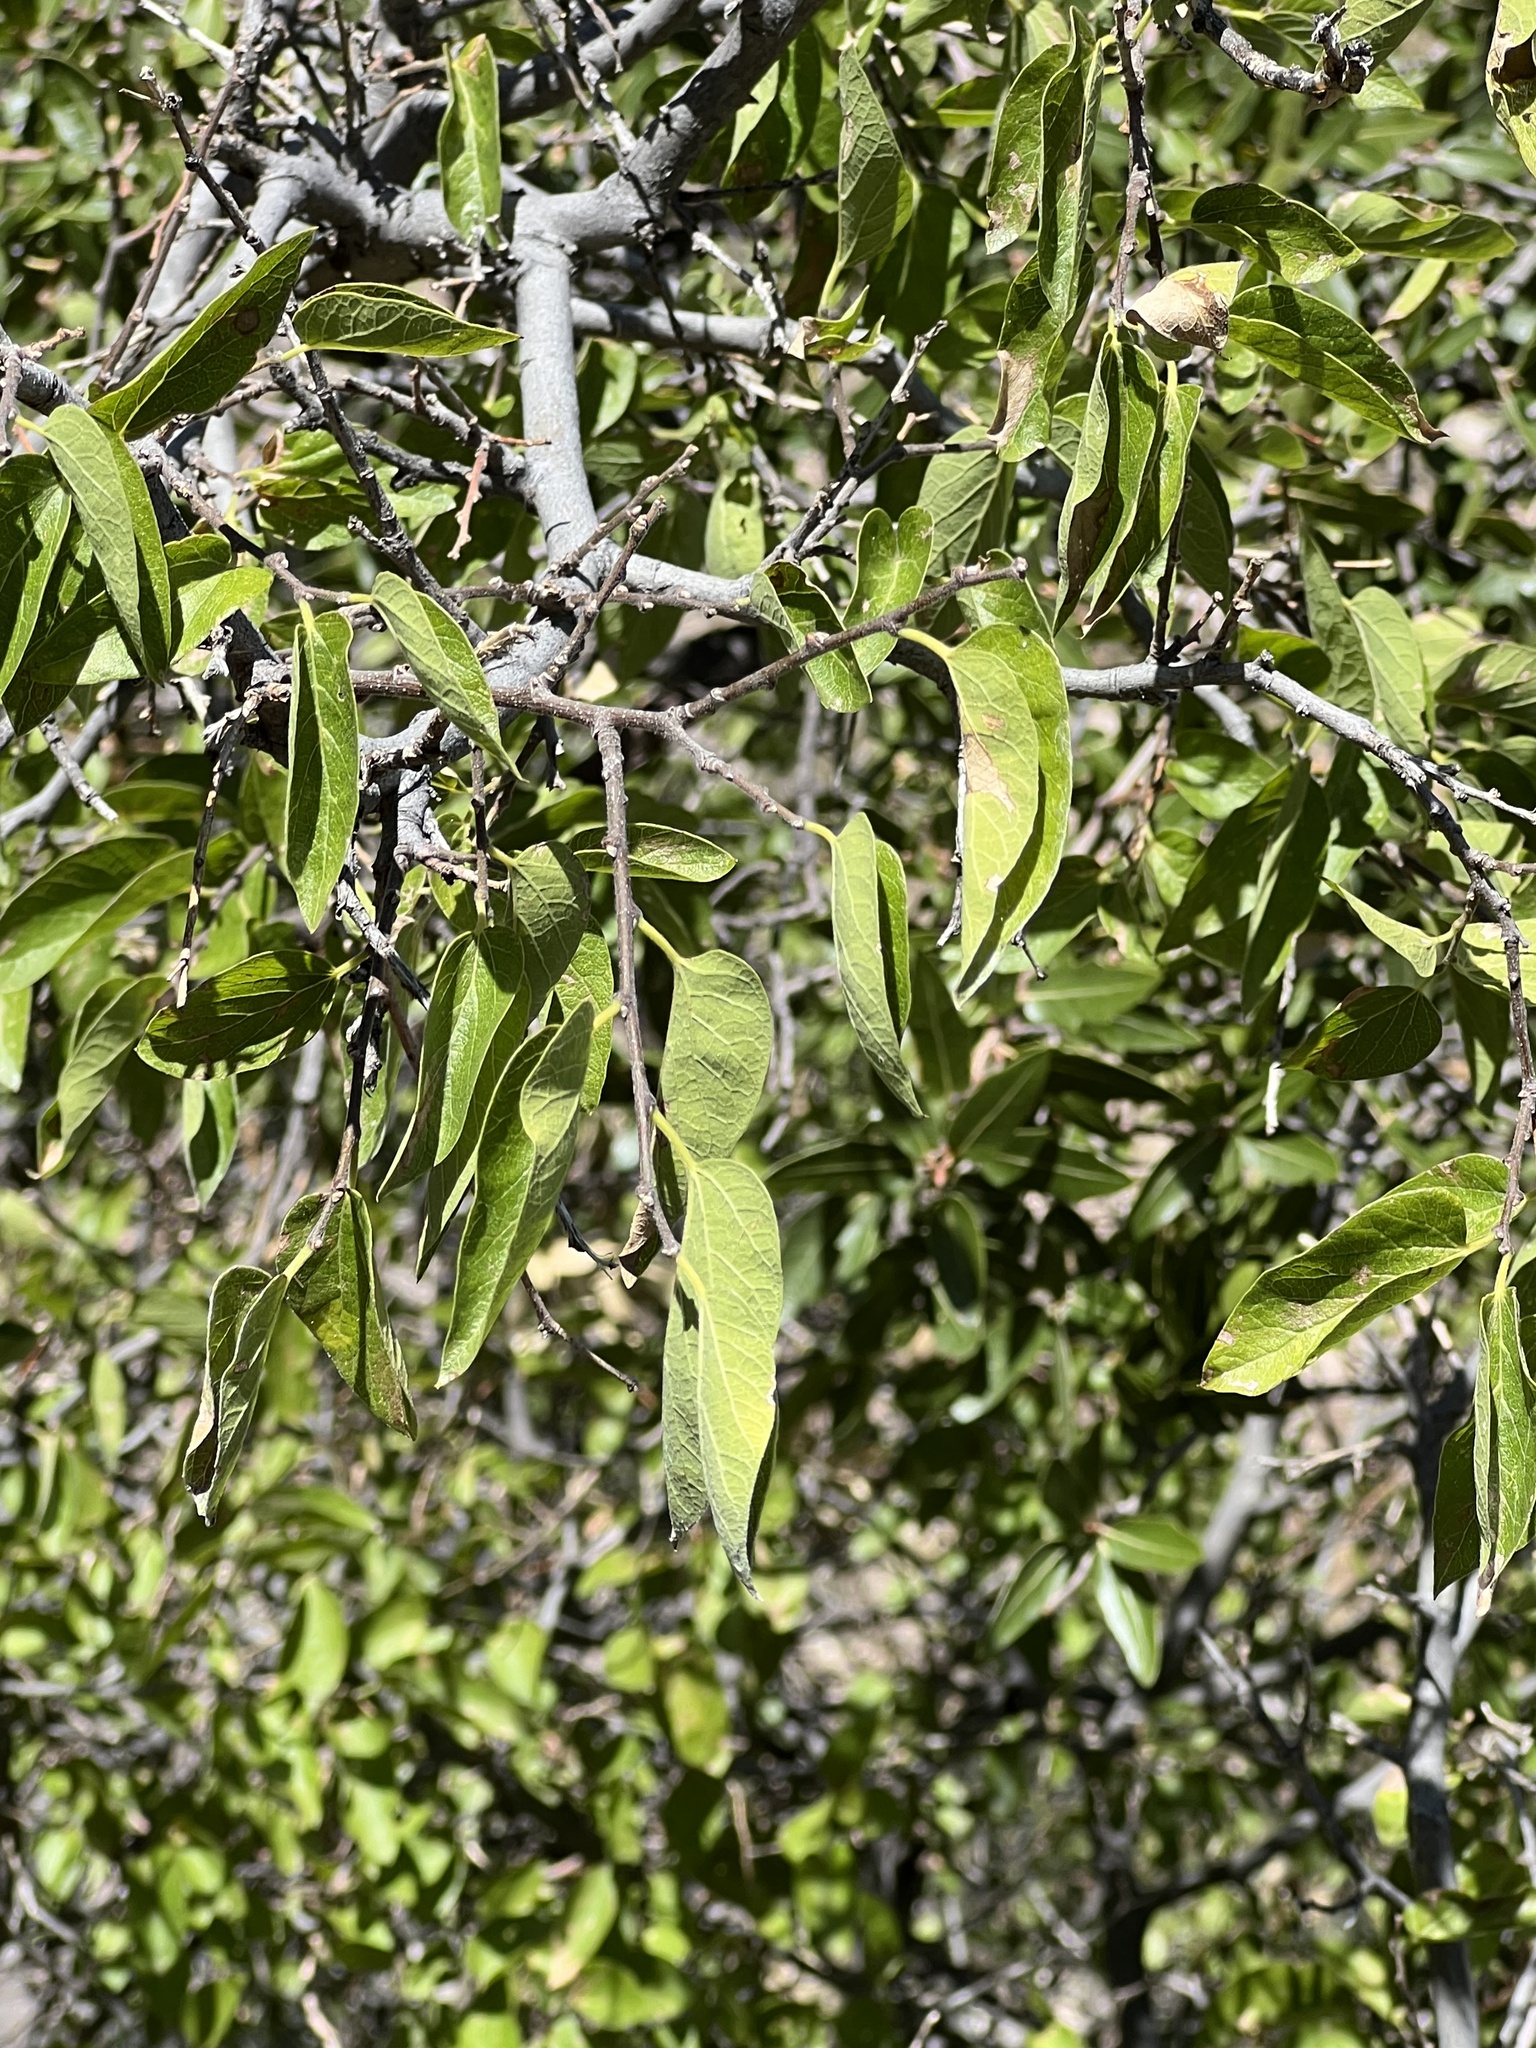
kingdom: Plantae
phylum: Tracheophyta
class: Magnoliopsida
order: Rosales
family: Cannabaceae
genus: Celtis
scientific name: Celtis reticulata
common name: Netleaf hackberry
